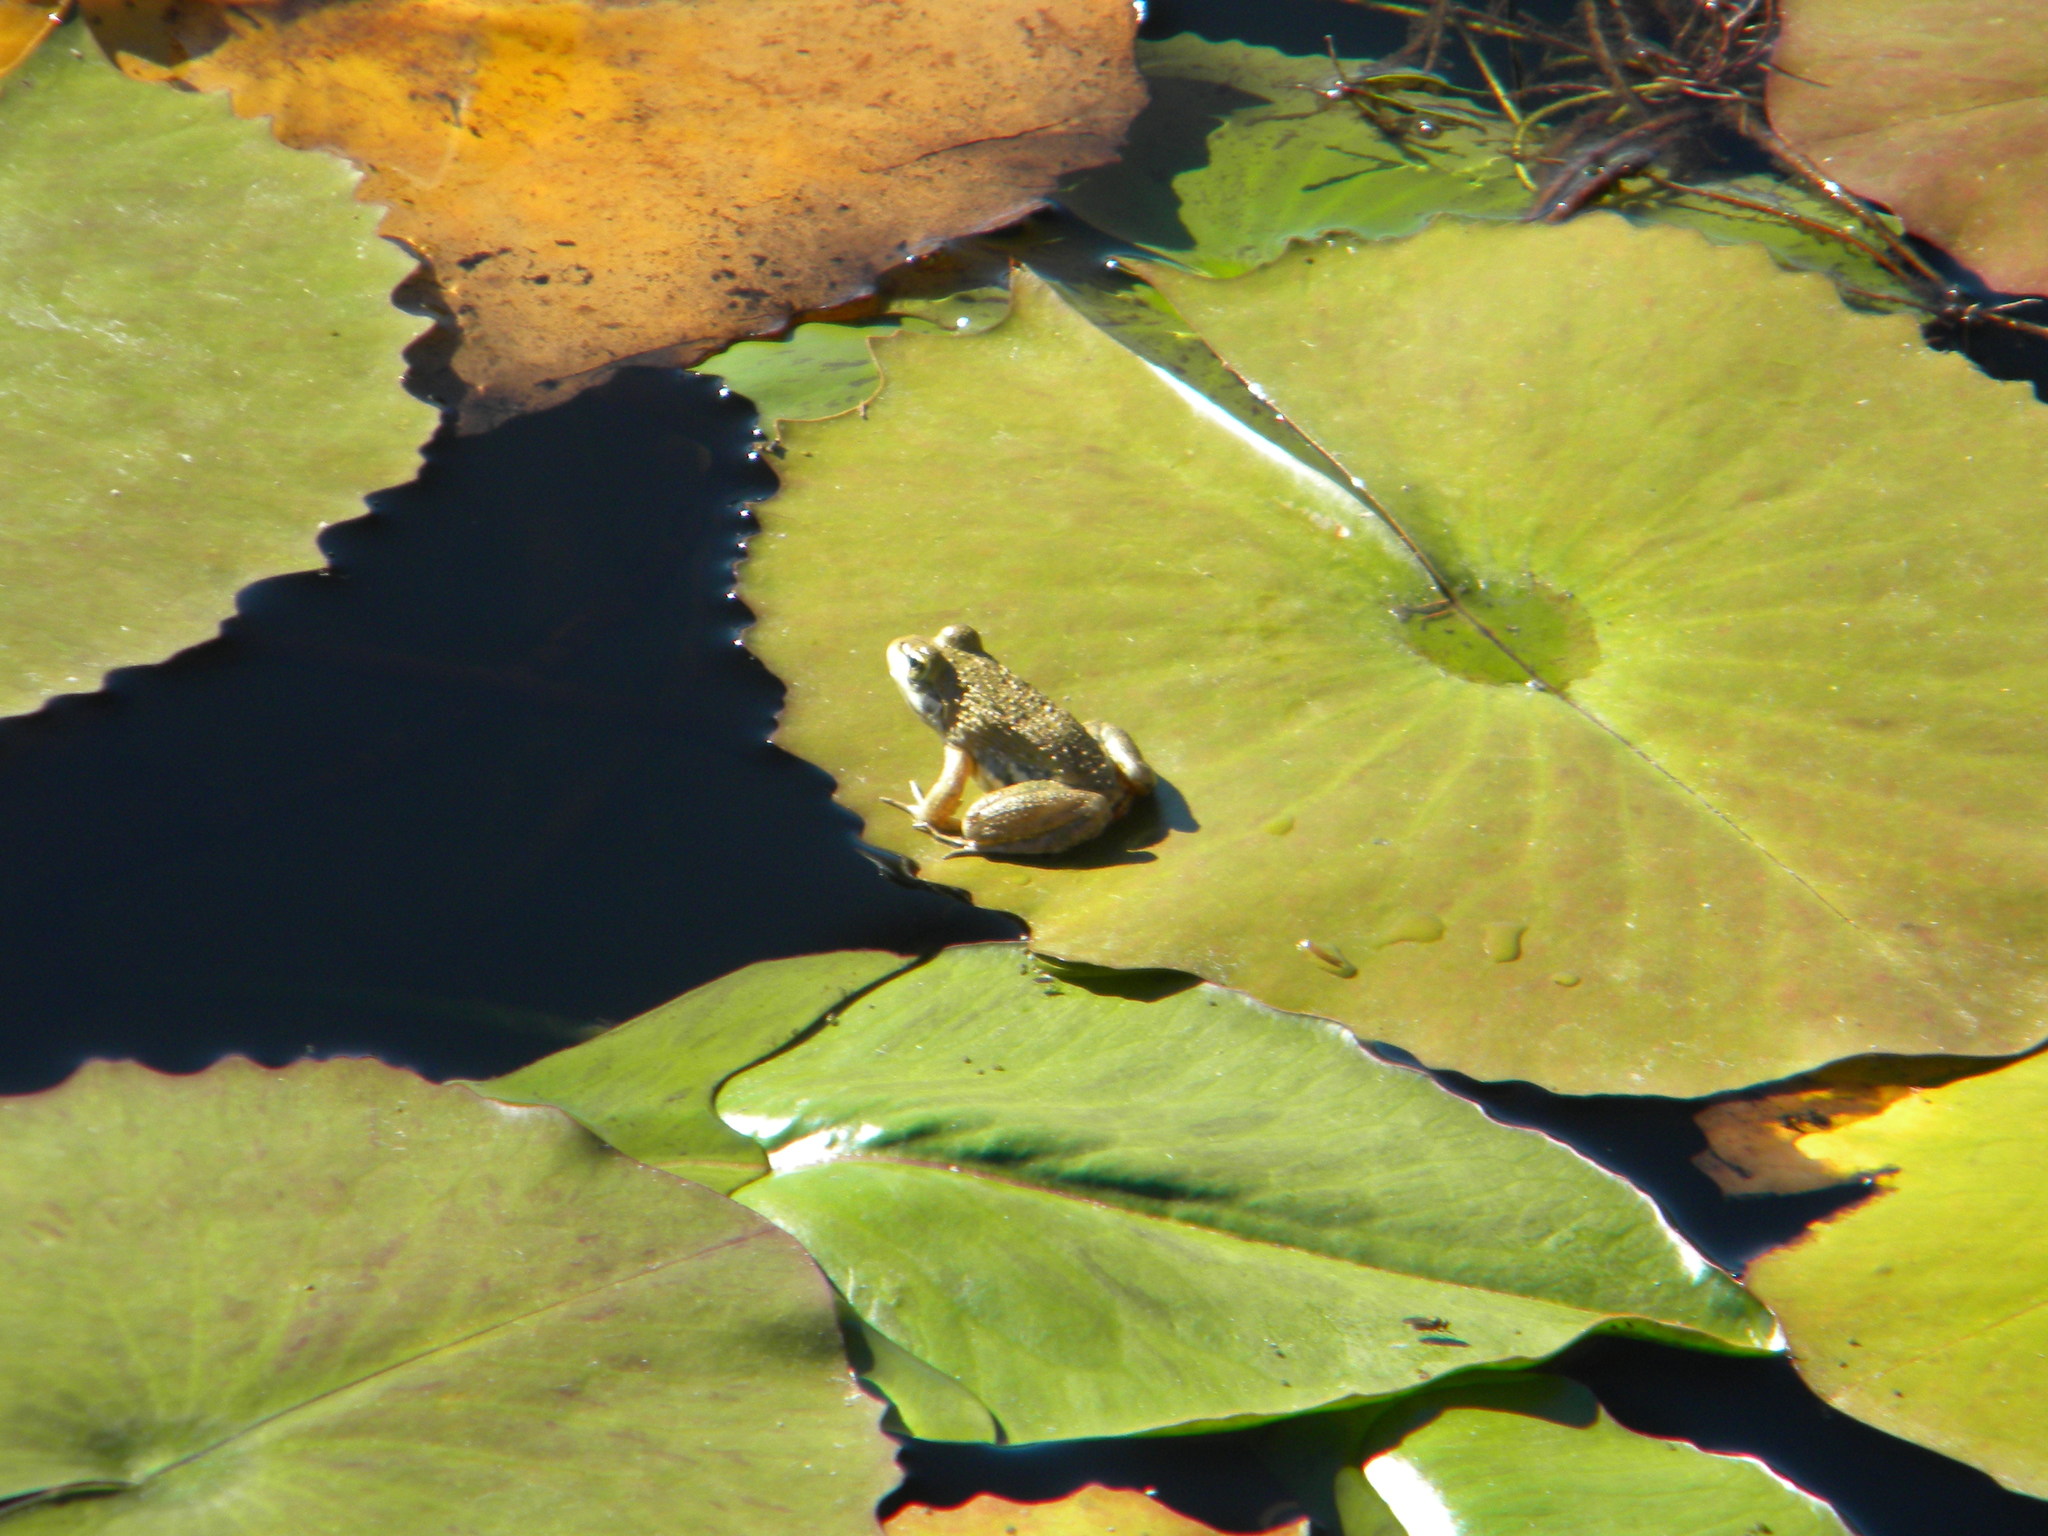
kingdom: Animalia
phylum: Chordata
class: Amphibia
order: Anura
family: Pyxicephalidae
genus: Amietia
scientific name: Amietia fuscigula
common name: Cape rana
